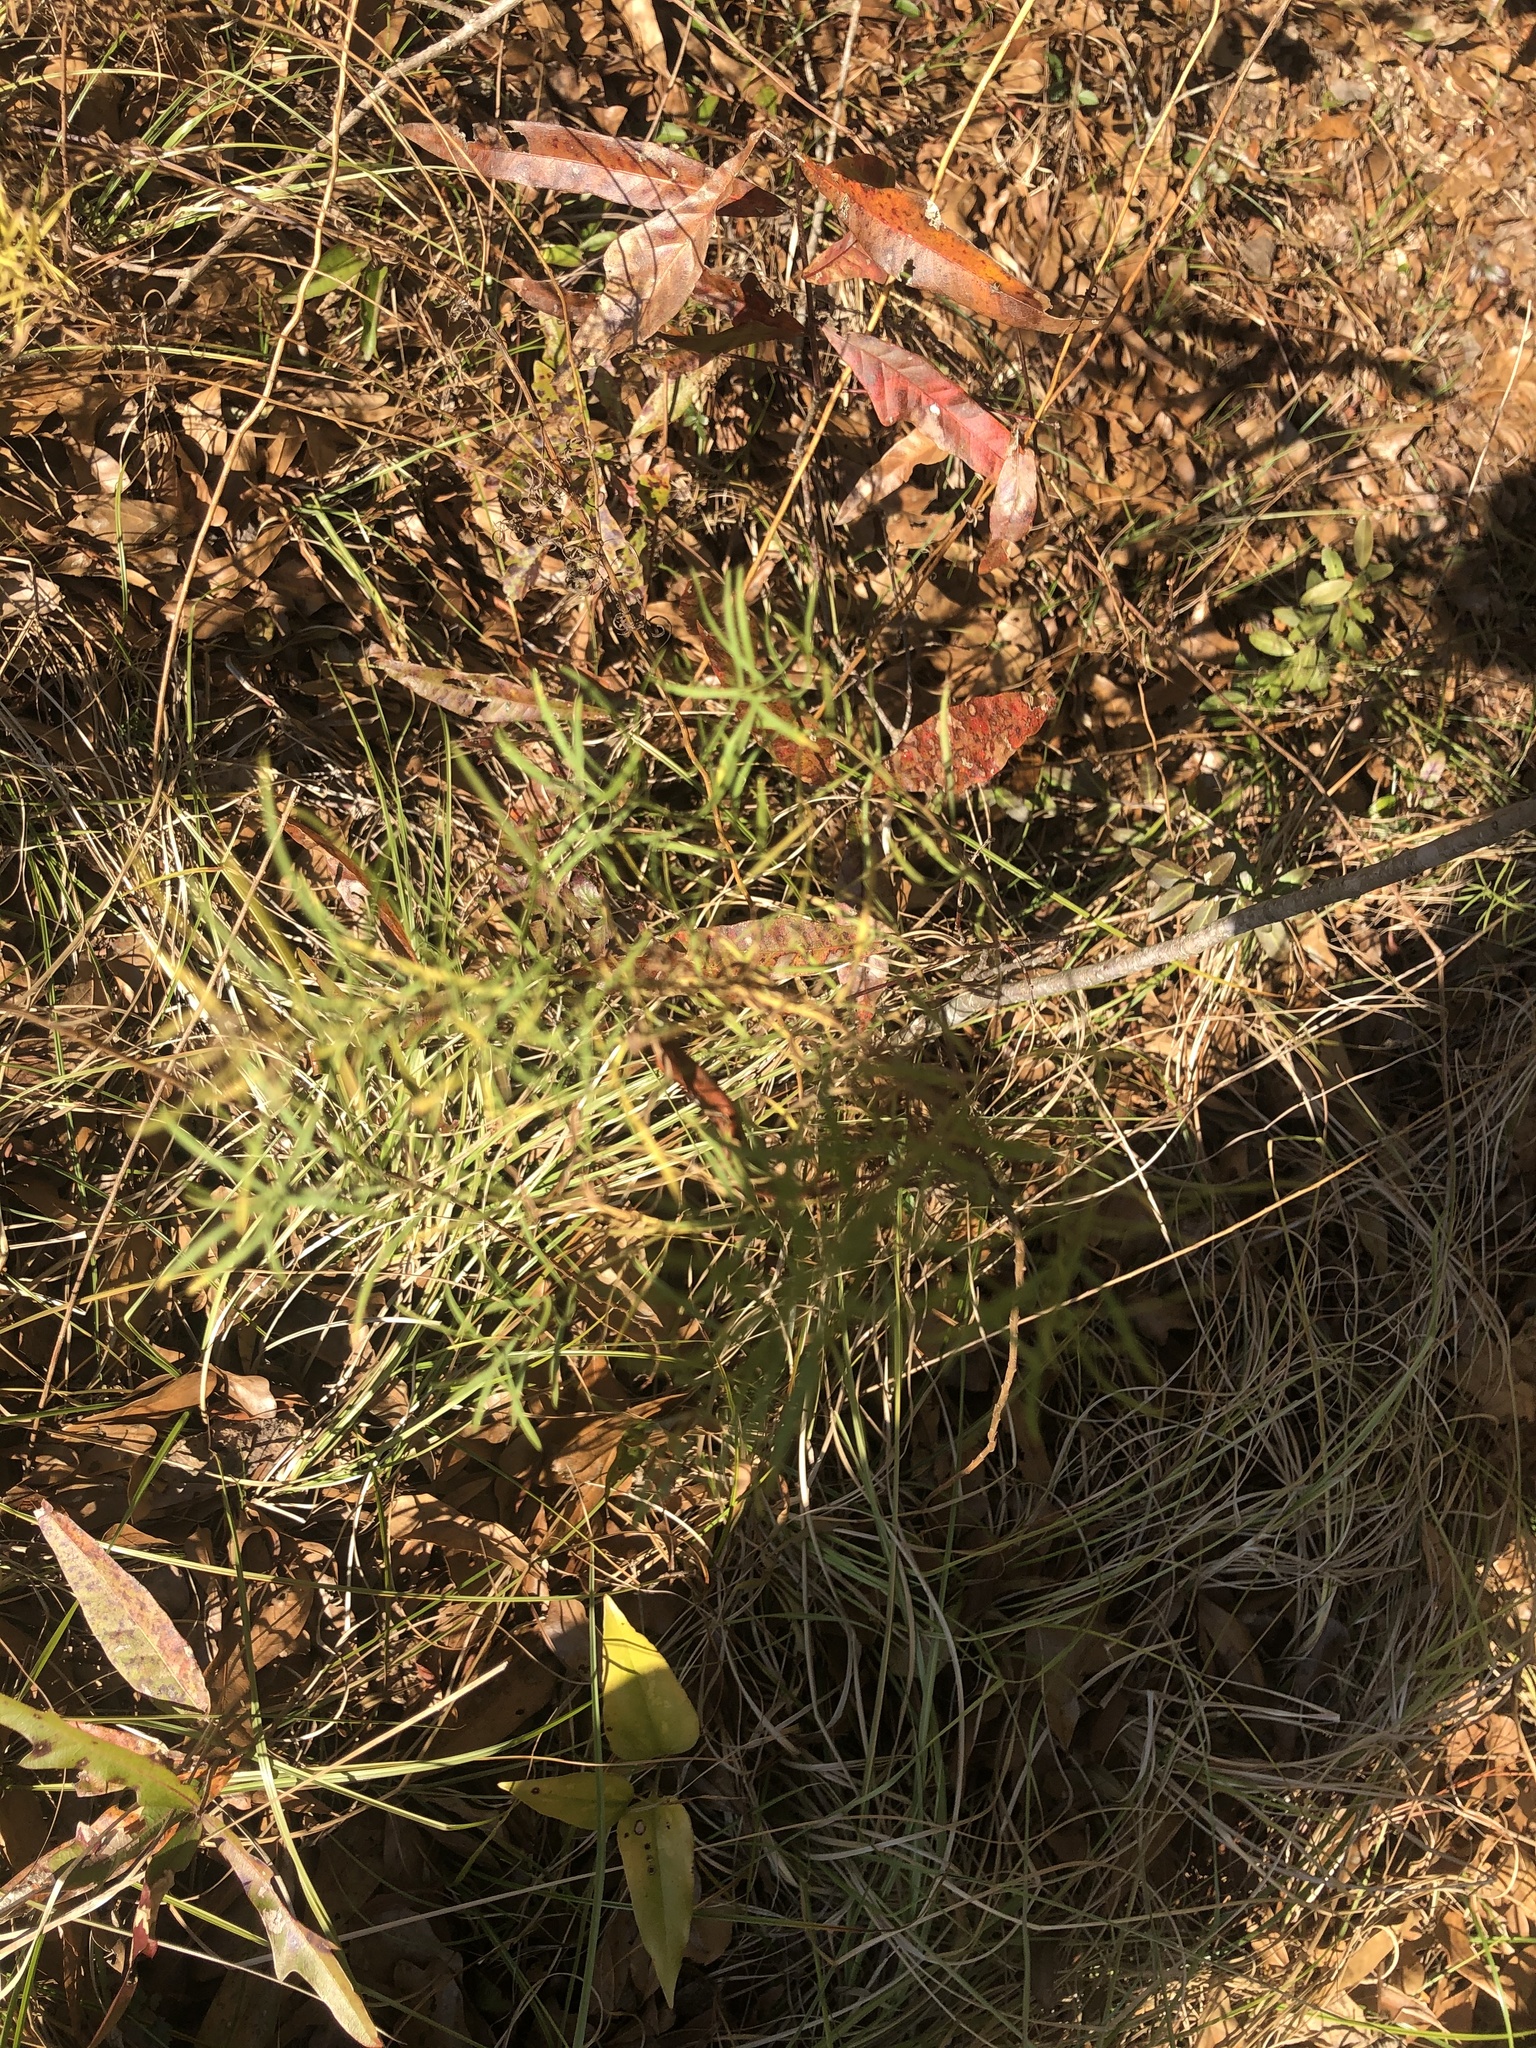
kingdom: Plantae
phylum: Tracheophyta
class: Magnoliopsida
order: Asterales
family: Asteraceae
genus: Euthamia
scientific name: Euthamia caroliniana
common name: Coastal plain goldentop
